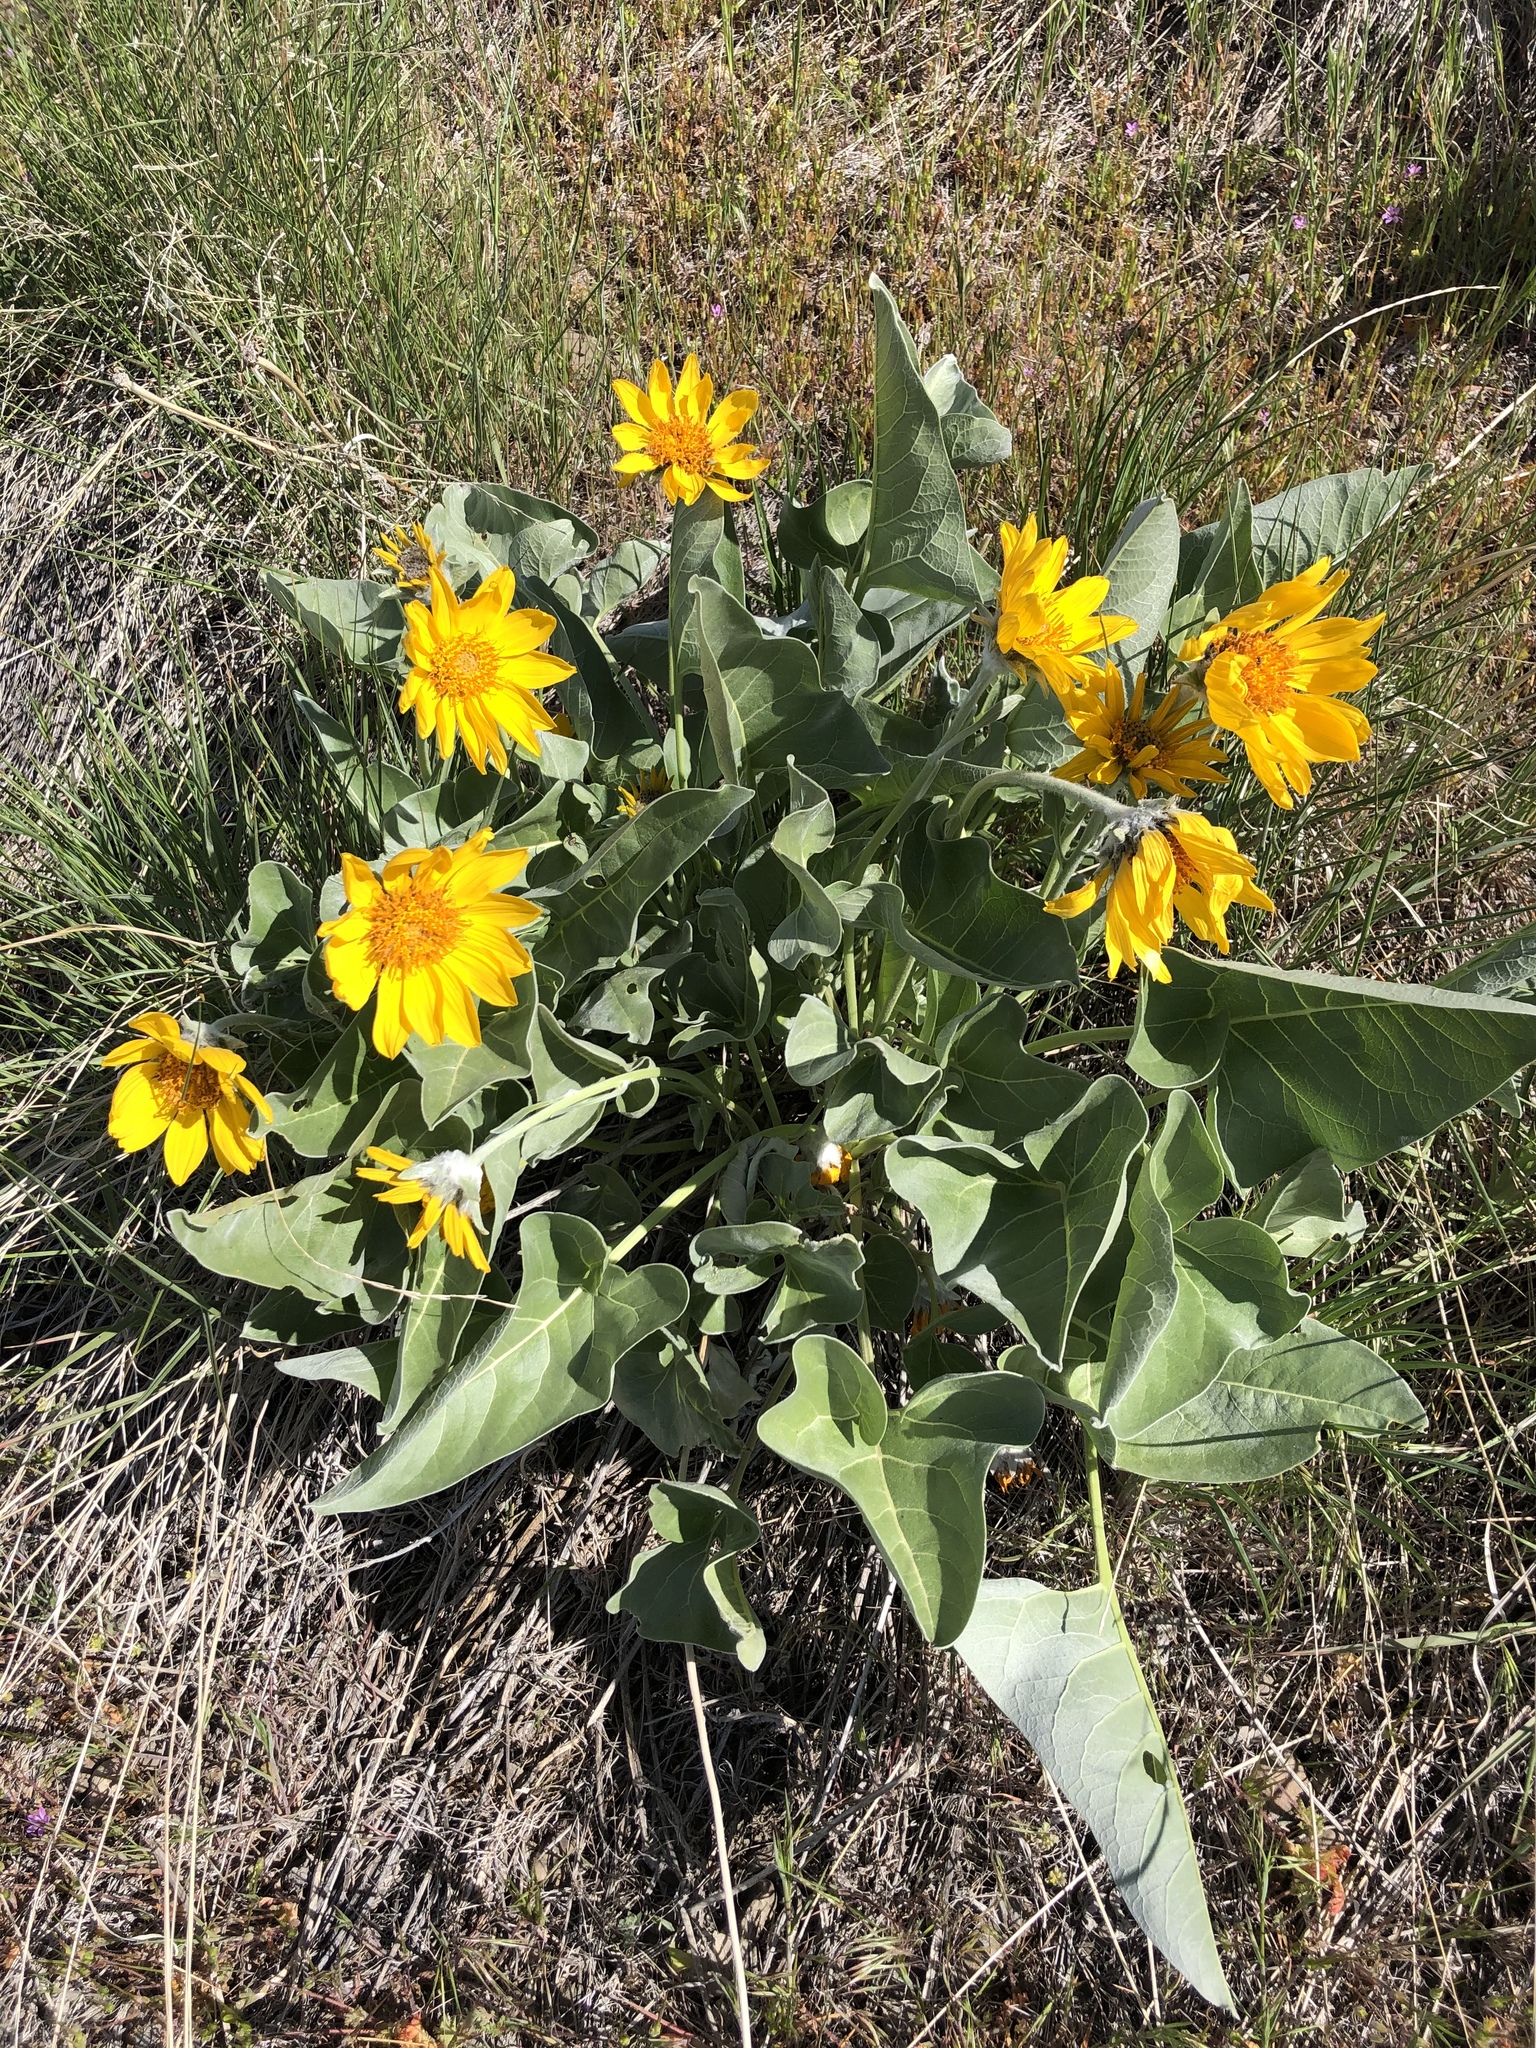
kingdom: Plantae
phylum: Tracheophyta
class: Magnoliopsida
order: Asterales
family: Asteraceae
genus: Wyethia
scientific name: Wyethia sagittata
